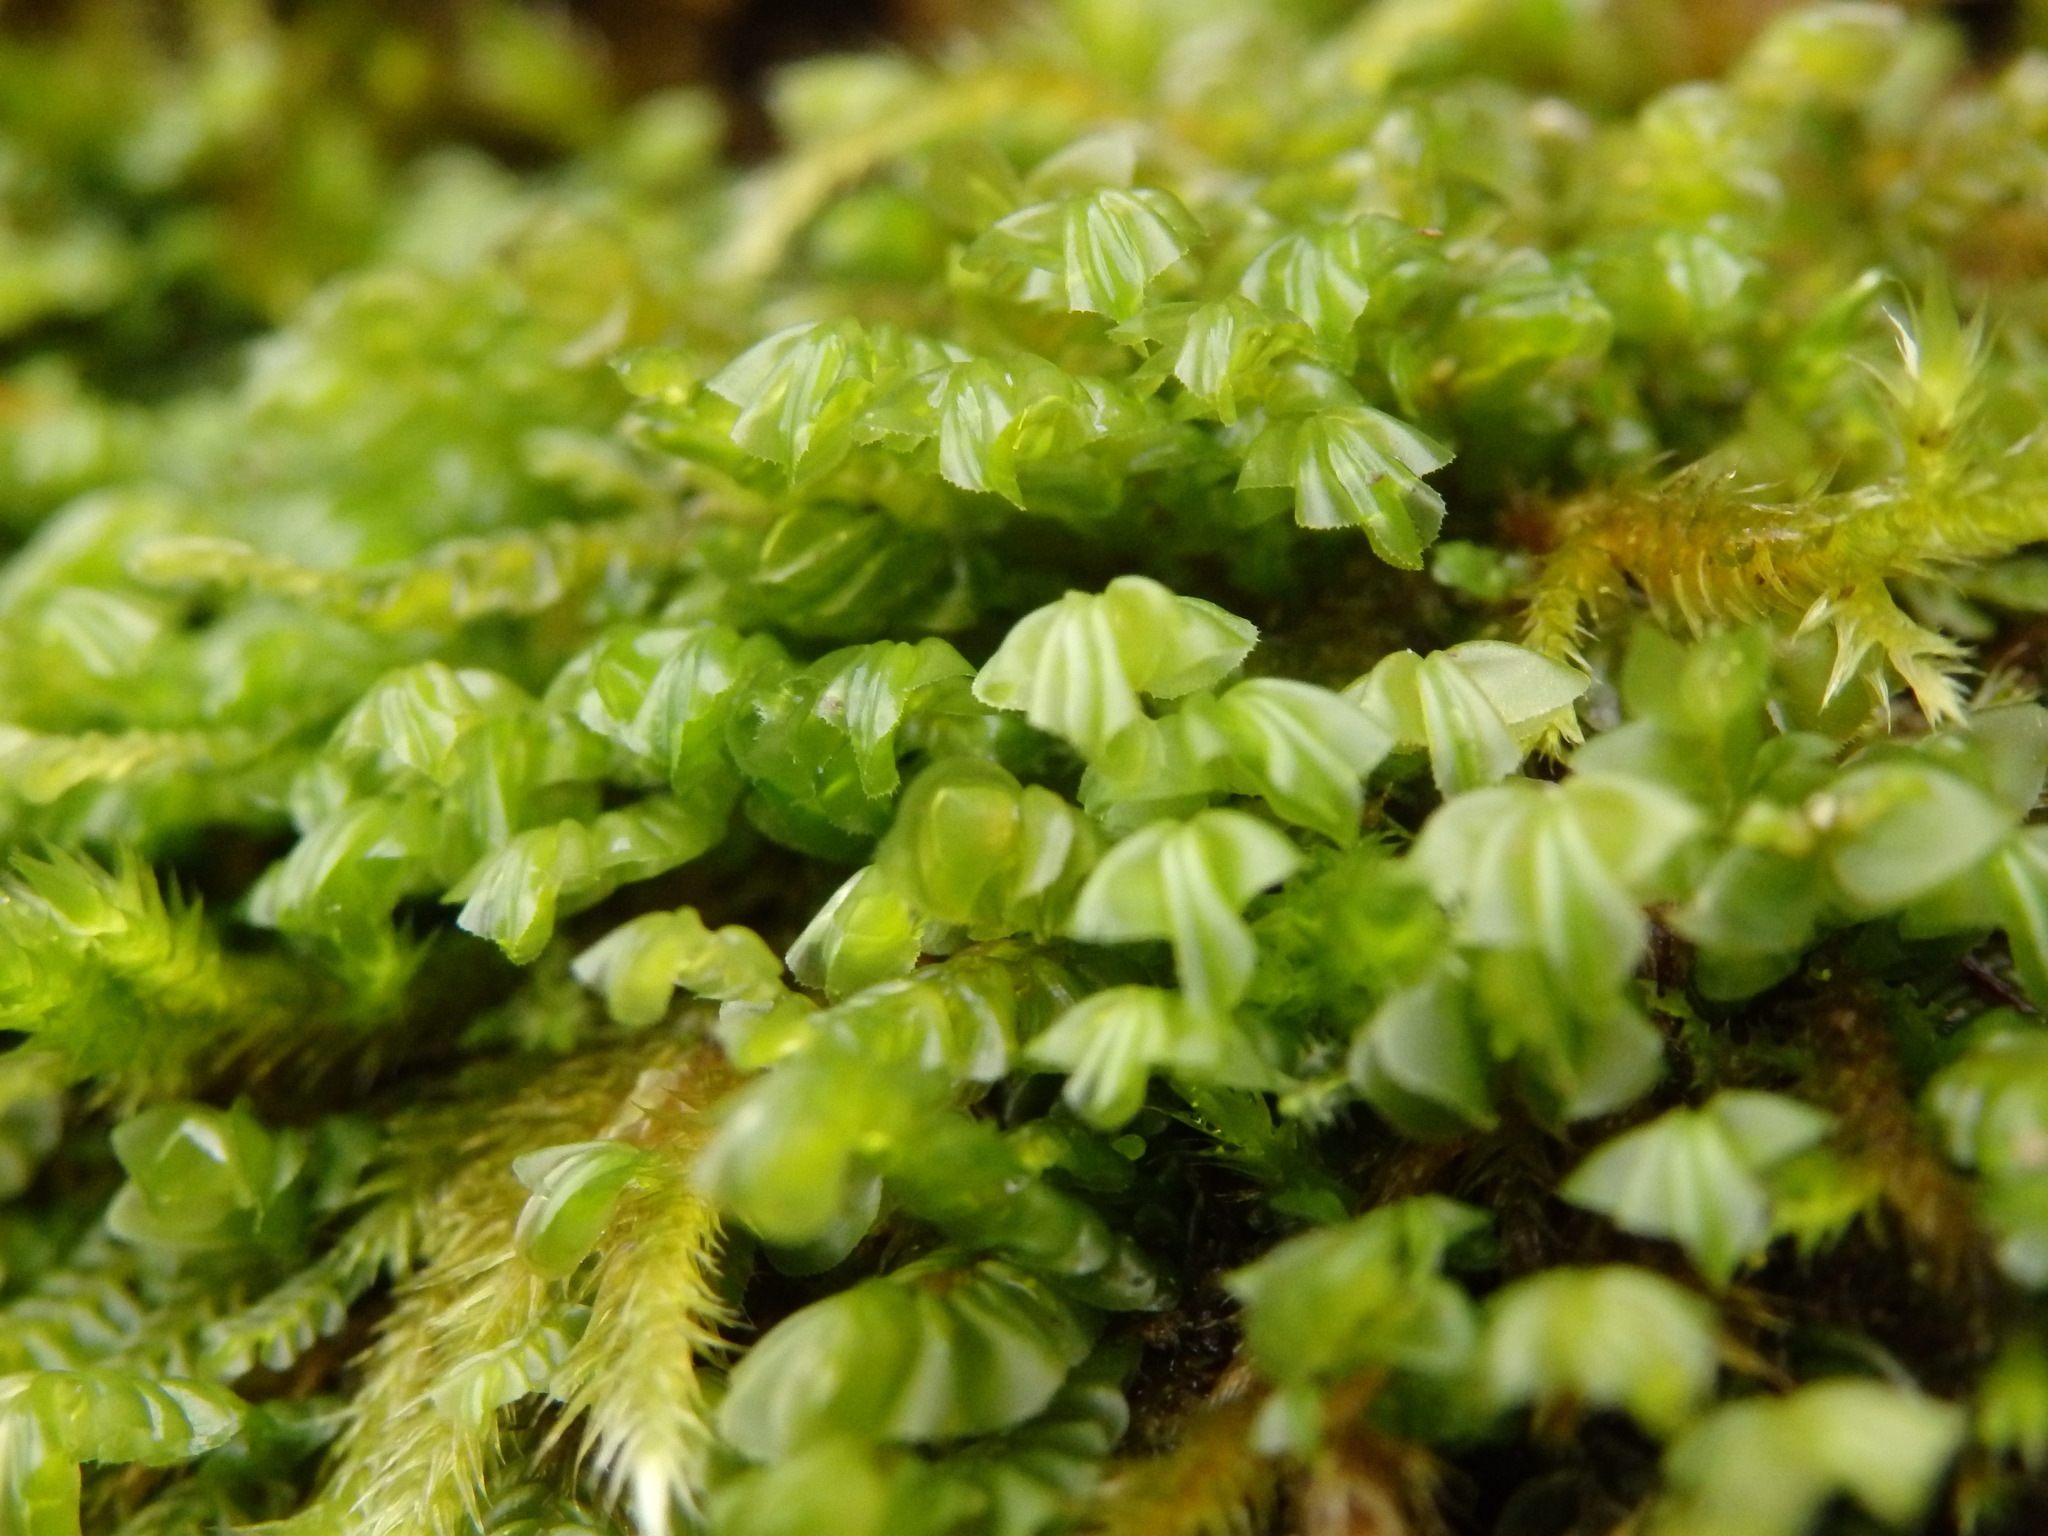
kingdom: Plantae
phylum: Marchantiophyta
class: Jungermanniopsida
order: Jungermanniales
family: Plagiochilaceae
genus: Plagiochila
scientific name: Plagiochila porelloides
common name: Lesser featherwort
